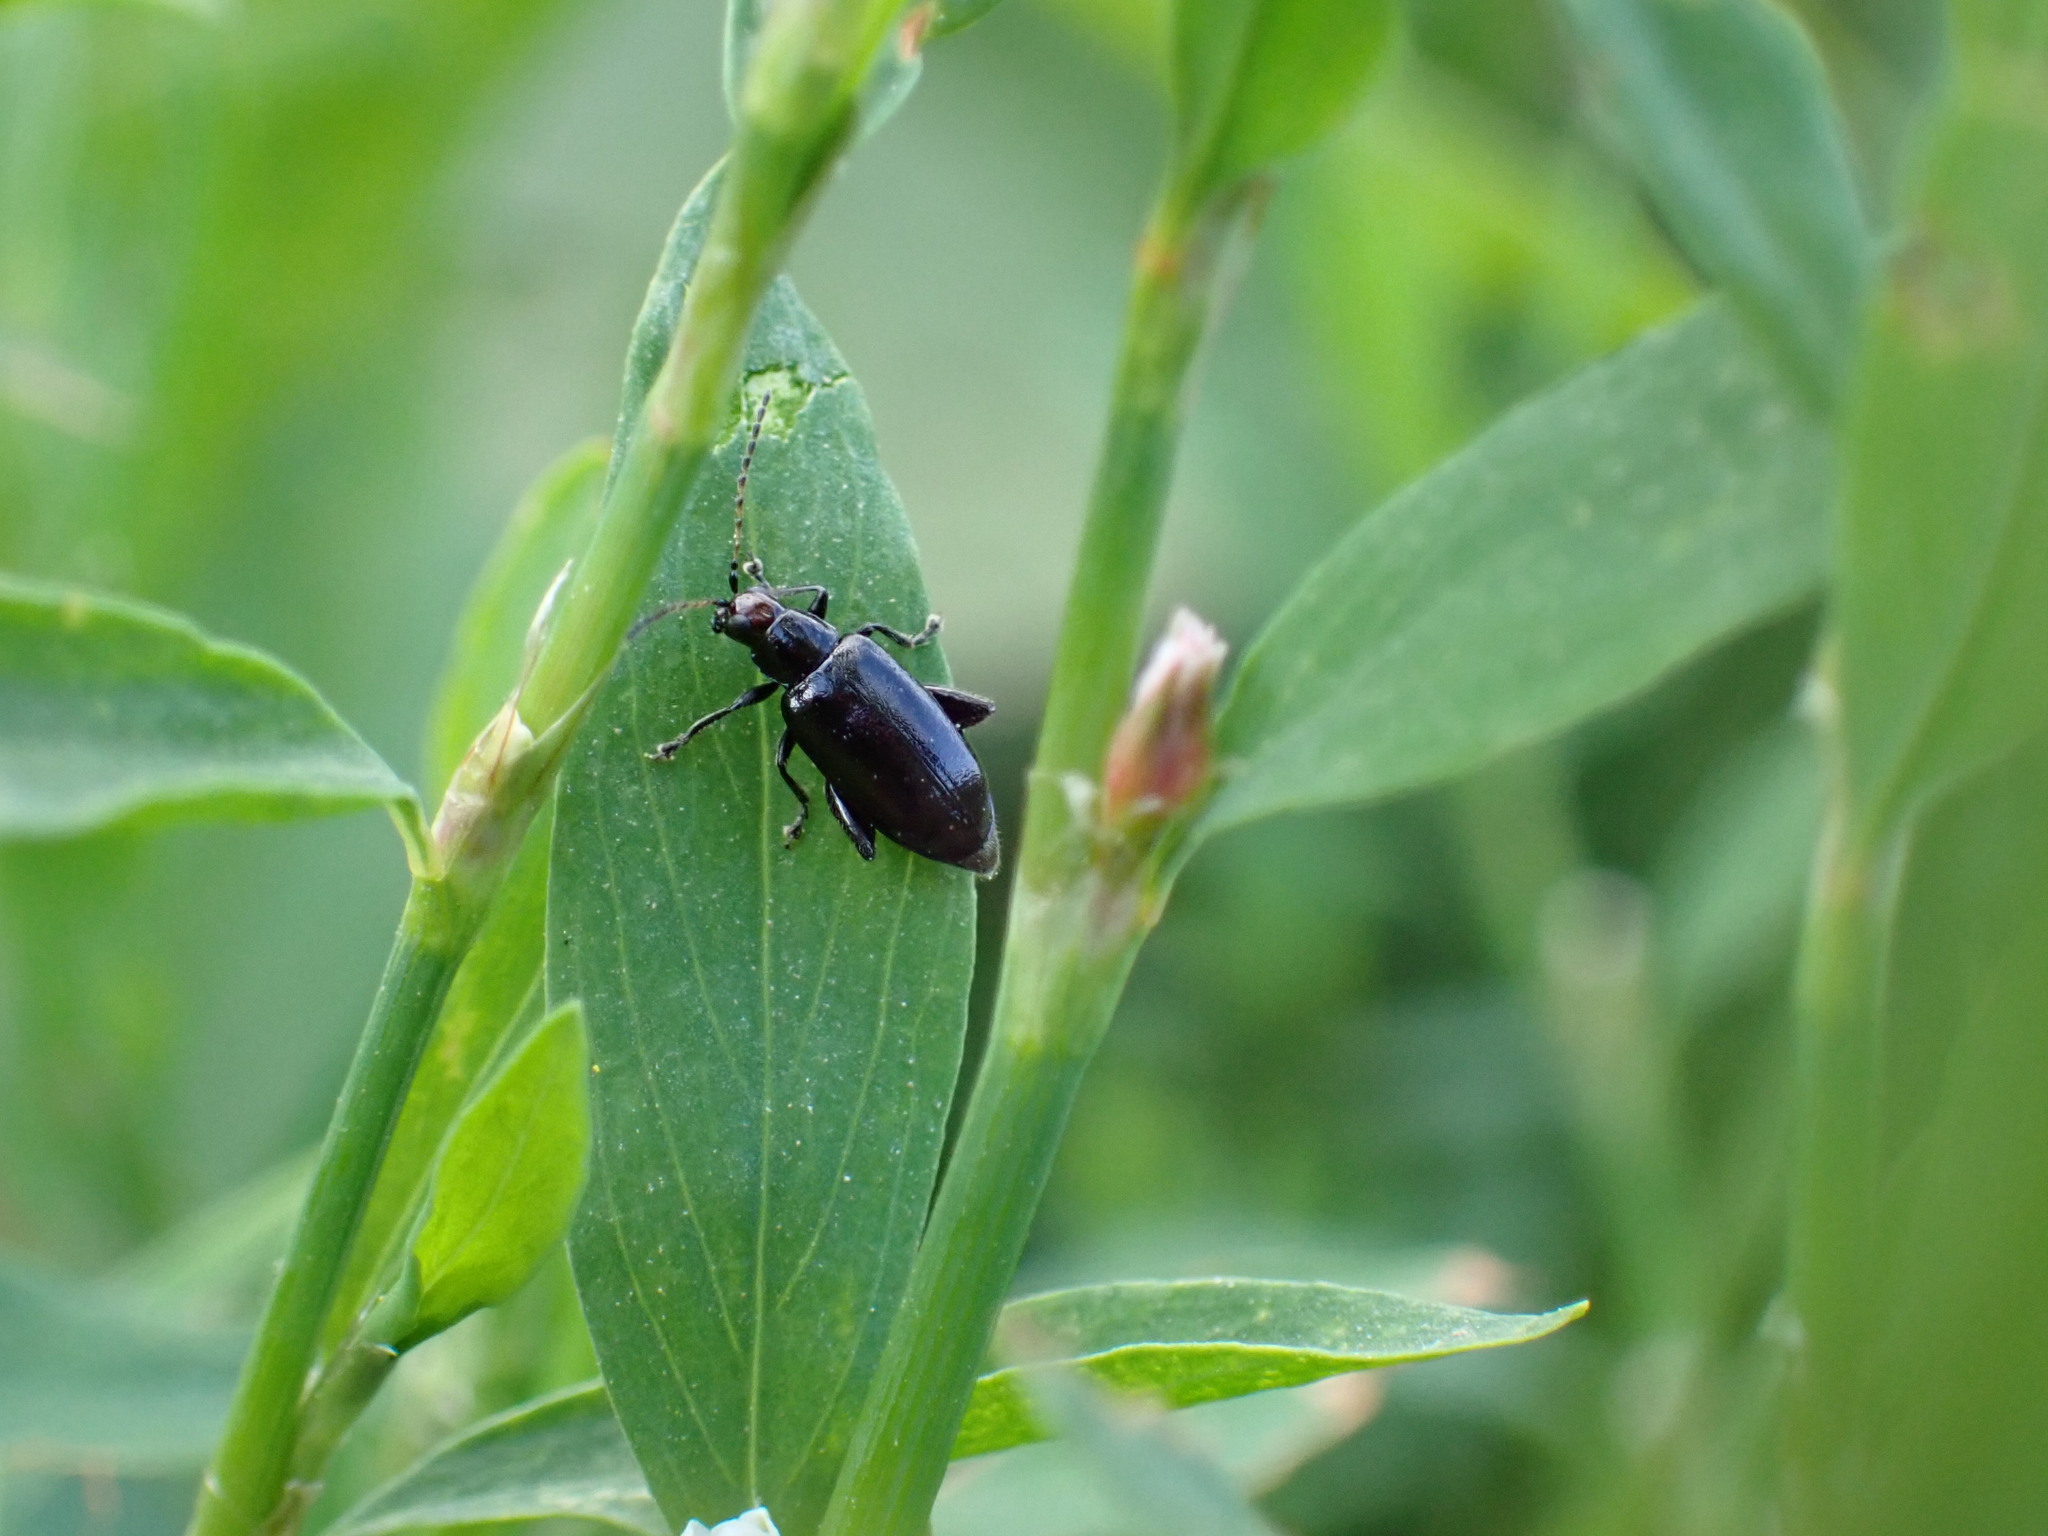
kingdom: Animalia
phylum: Arthropoda
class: Insecta
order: Coleoptera
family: Chrysomelidae
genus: Systena
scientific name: Systena frontalis
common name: Red-headed flea beetle
